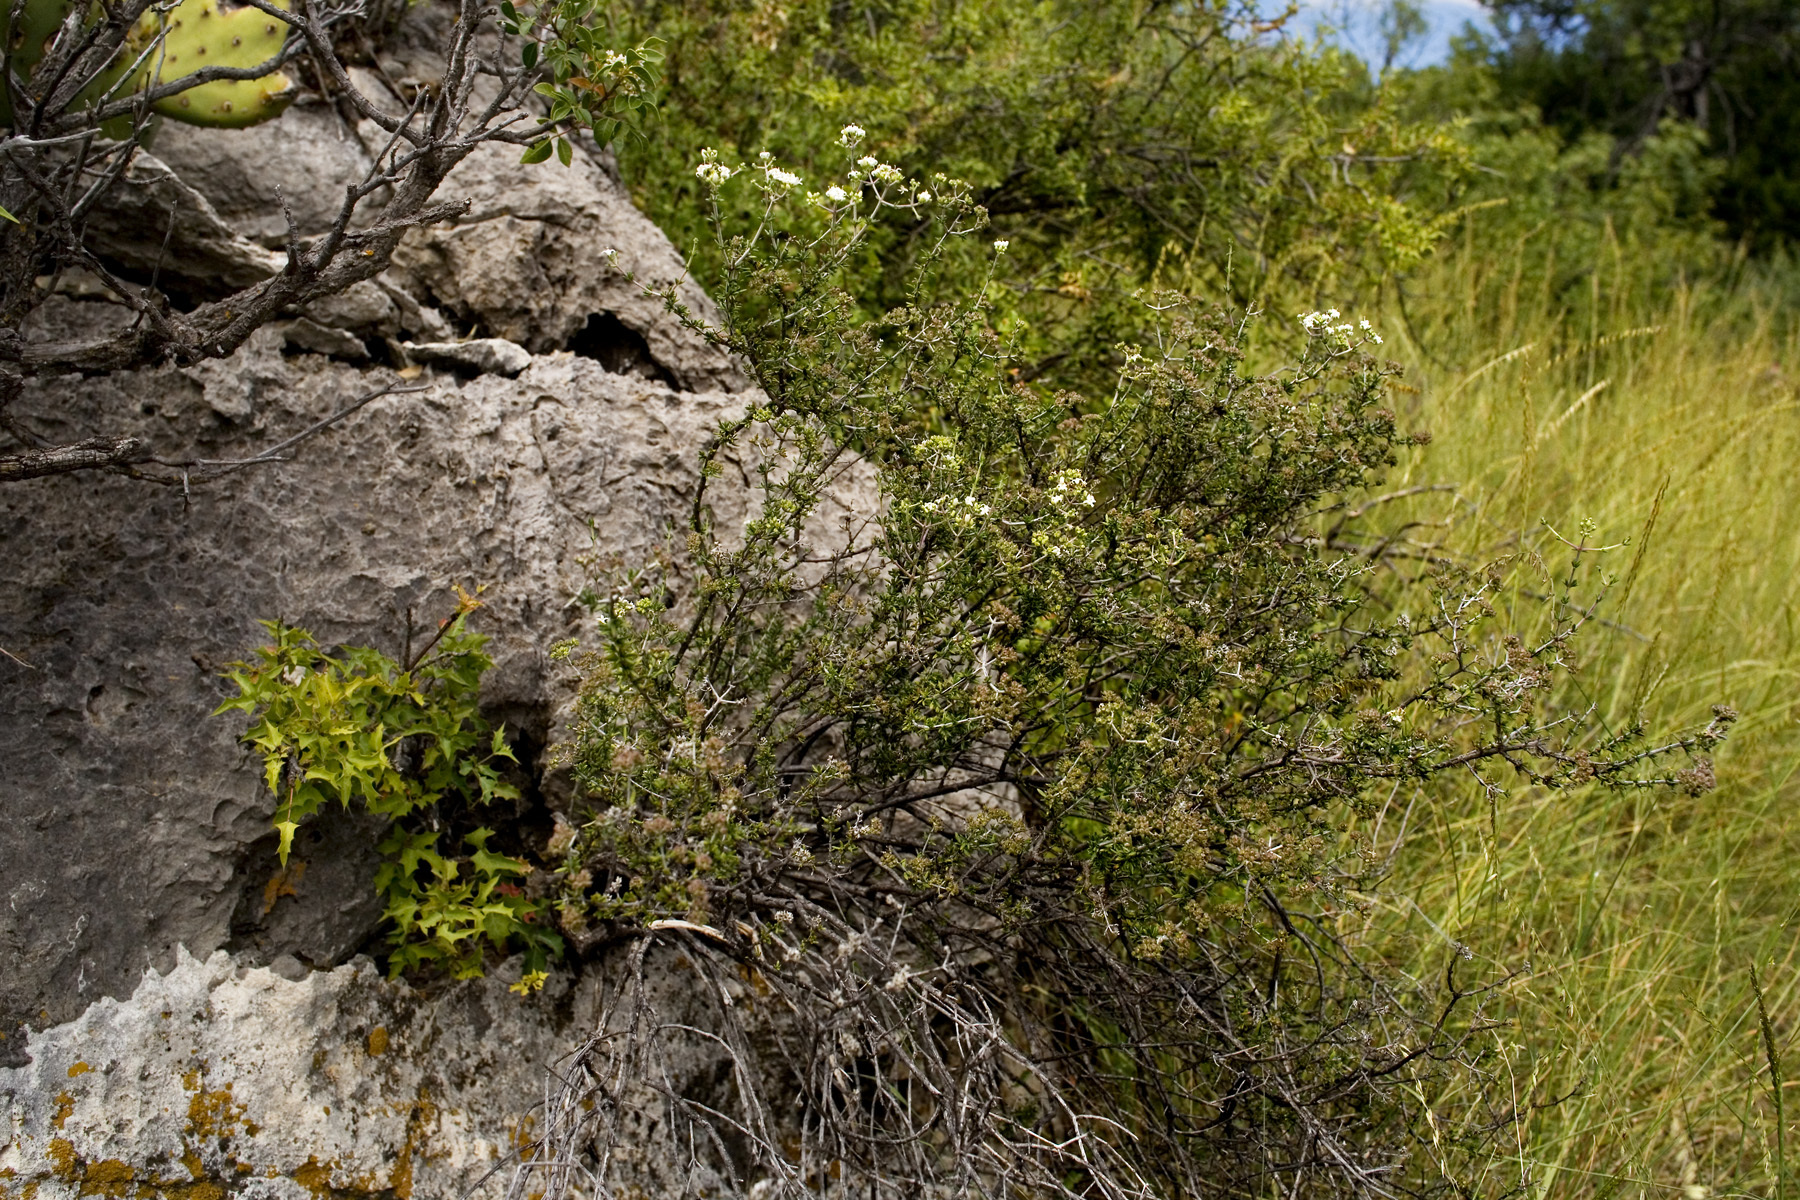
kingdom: Plantae
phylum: Tracheophyta
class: Magnoliopsida
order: Gentianales
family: Rubiaceae
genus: Arcytophyllum
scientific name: Arcytophyllum fasciculatum
